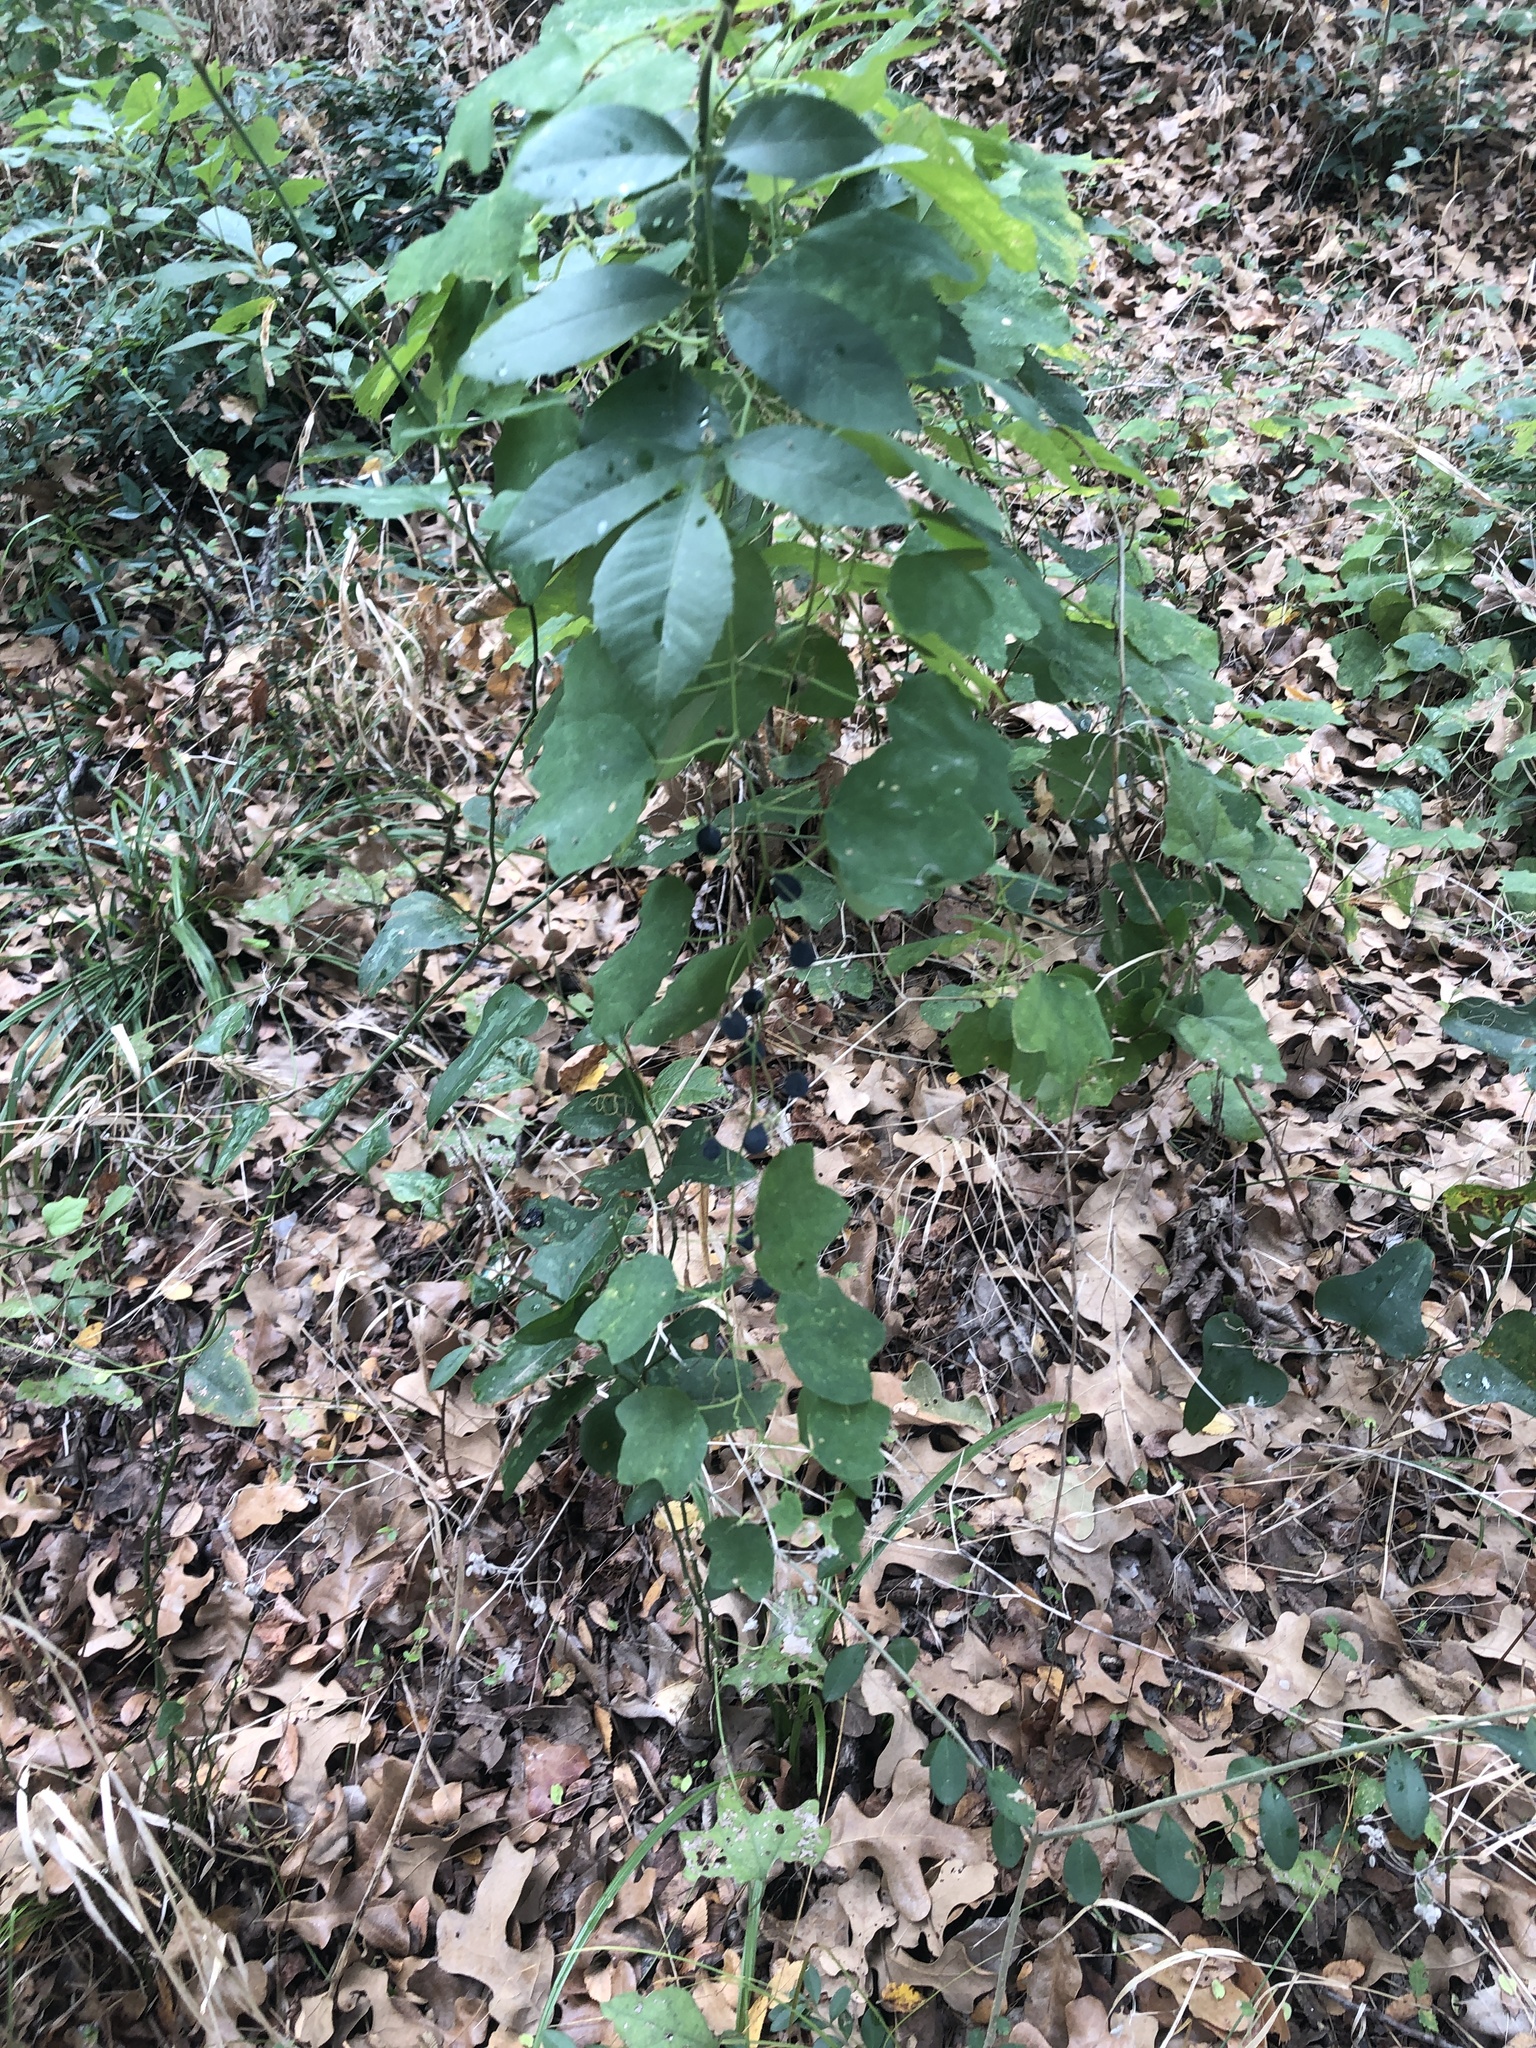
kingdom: Plantae
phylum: Tracheophyta
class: Magnoliopsida
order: Malpighiales
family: Passifloraceae
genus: Passiflora
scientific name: Passiflora lutea
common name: Yellow passionflower
